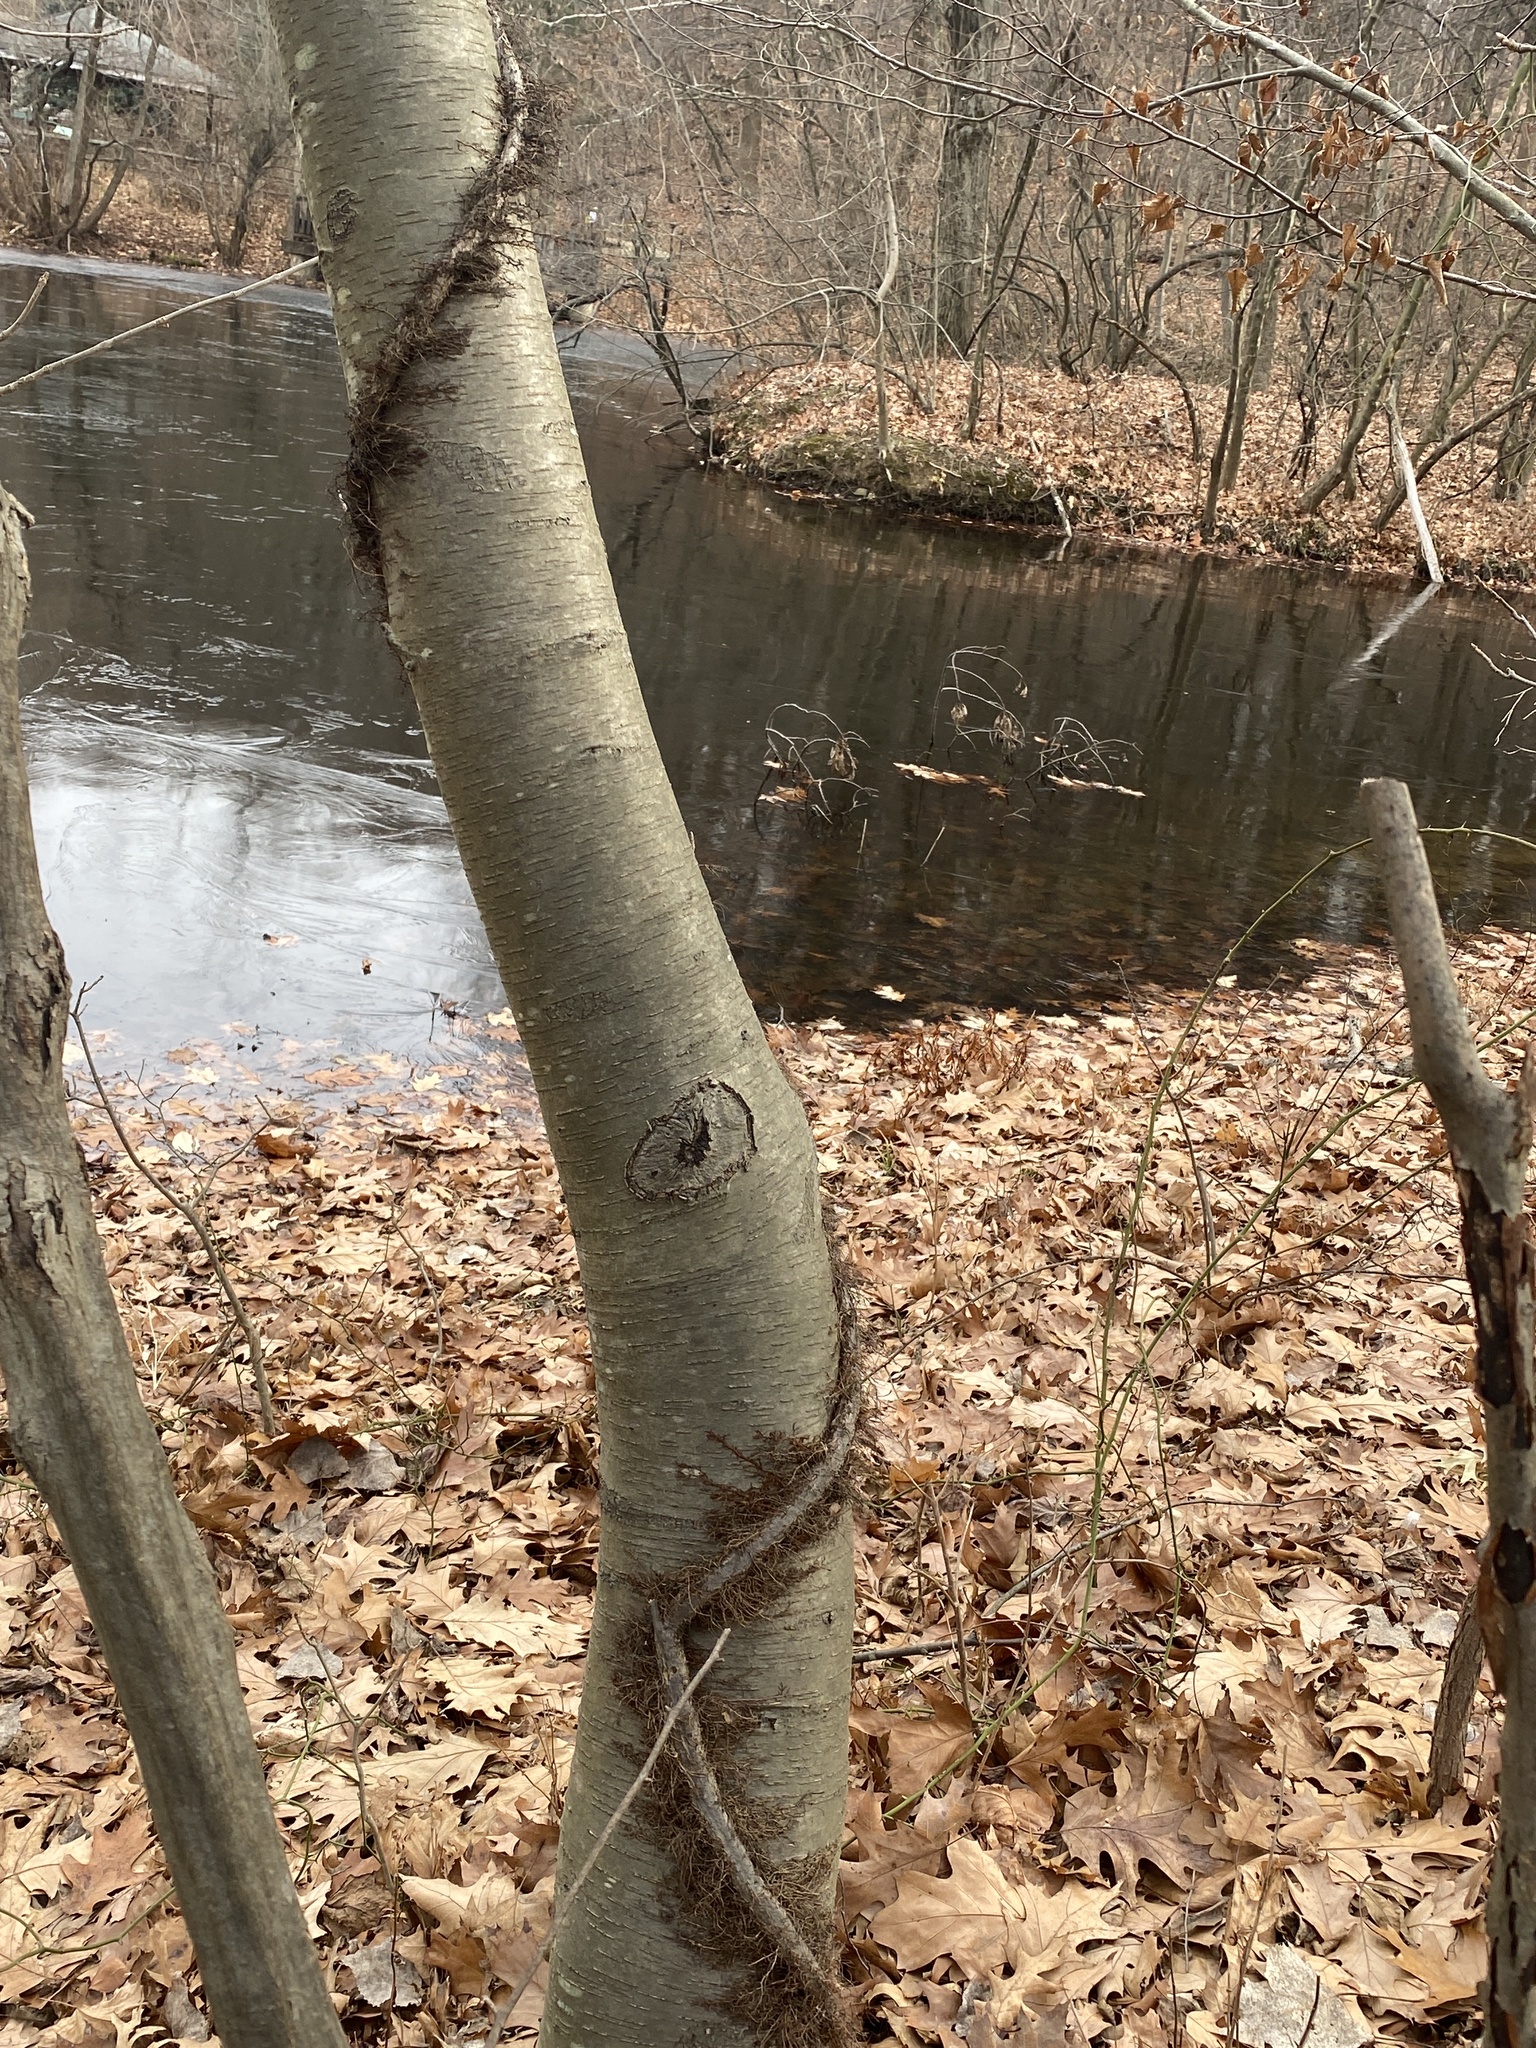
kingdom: Plantae
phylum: Tracheophyta
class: Magnoliopsida
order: Fagales
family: Betulaceae
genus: Betula
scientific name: Betula lenta
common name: Black birch
